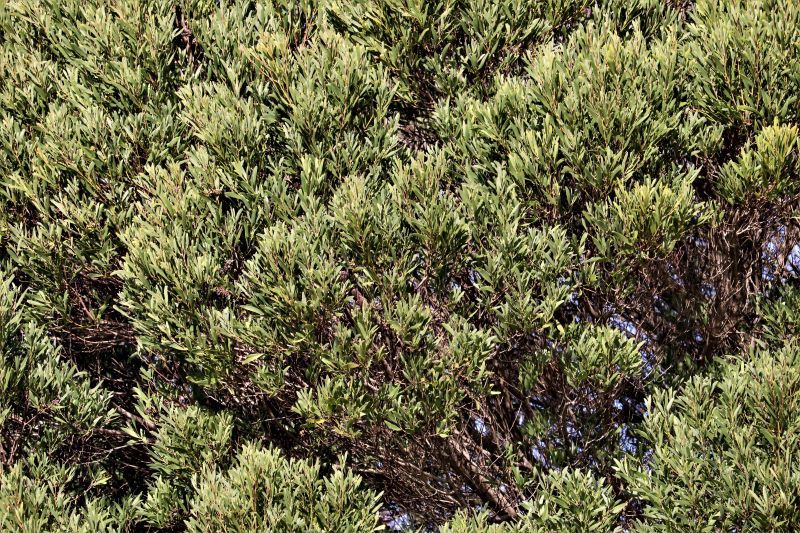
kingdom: Plantae
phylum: Tracheophyta
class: Magnoliopsida
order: Fabales
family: Fabaceae
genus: Acacia
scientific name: Acacia cyclops
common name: Coastal wattle
